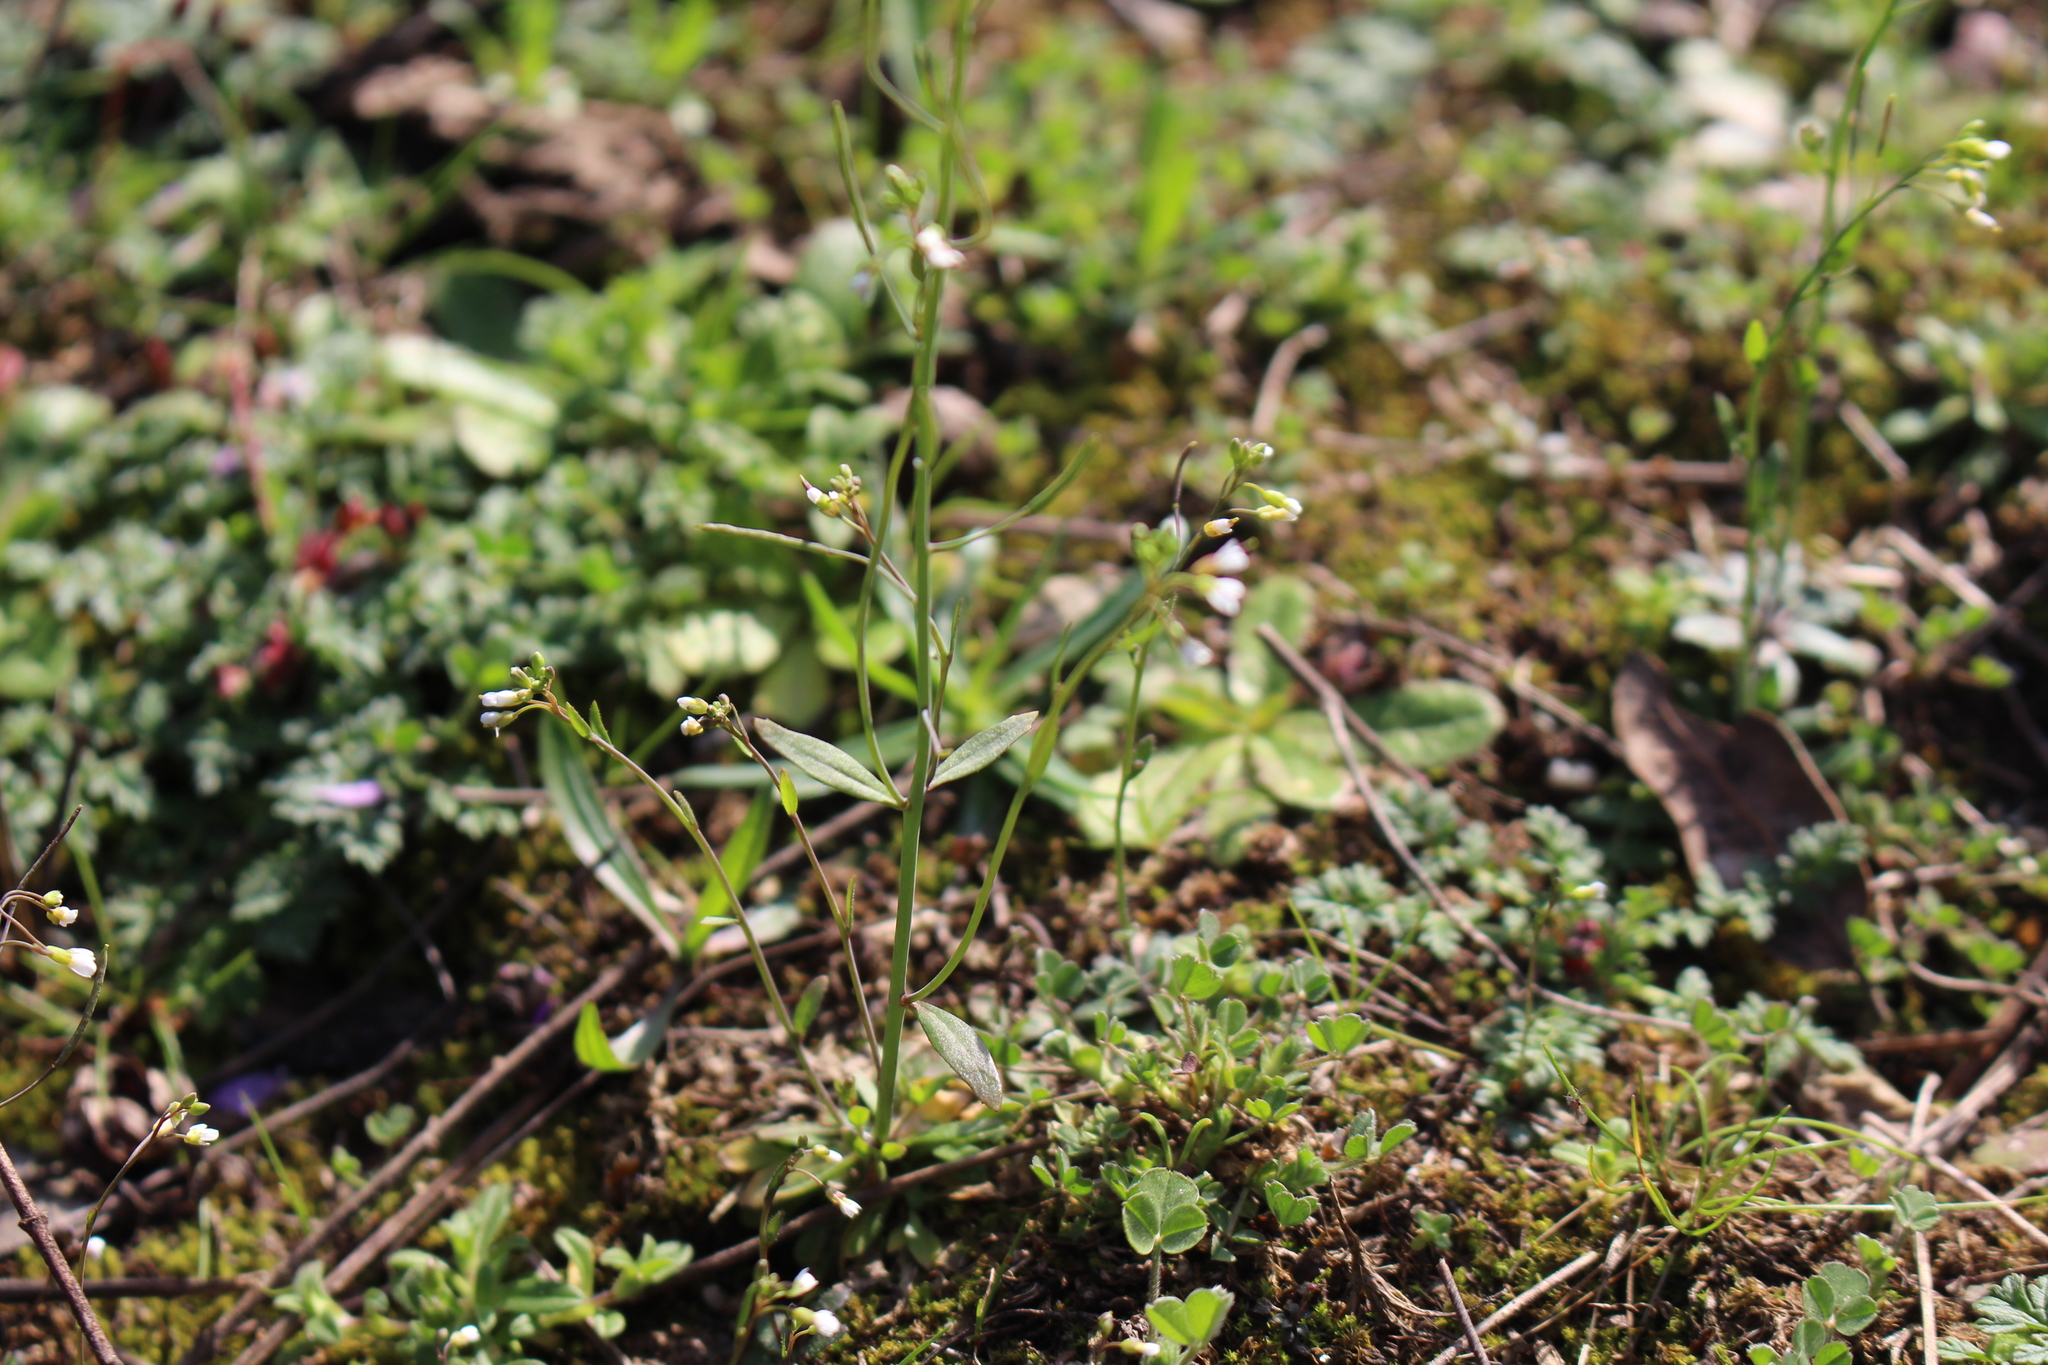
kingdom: Plantae
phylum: Tracheophyta
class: Magnoliopsida
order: Brassicales
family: Brassicaceae
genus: Arabidopsis
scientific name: Arabidopsis thaliana
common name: Thale cress
